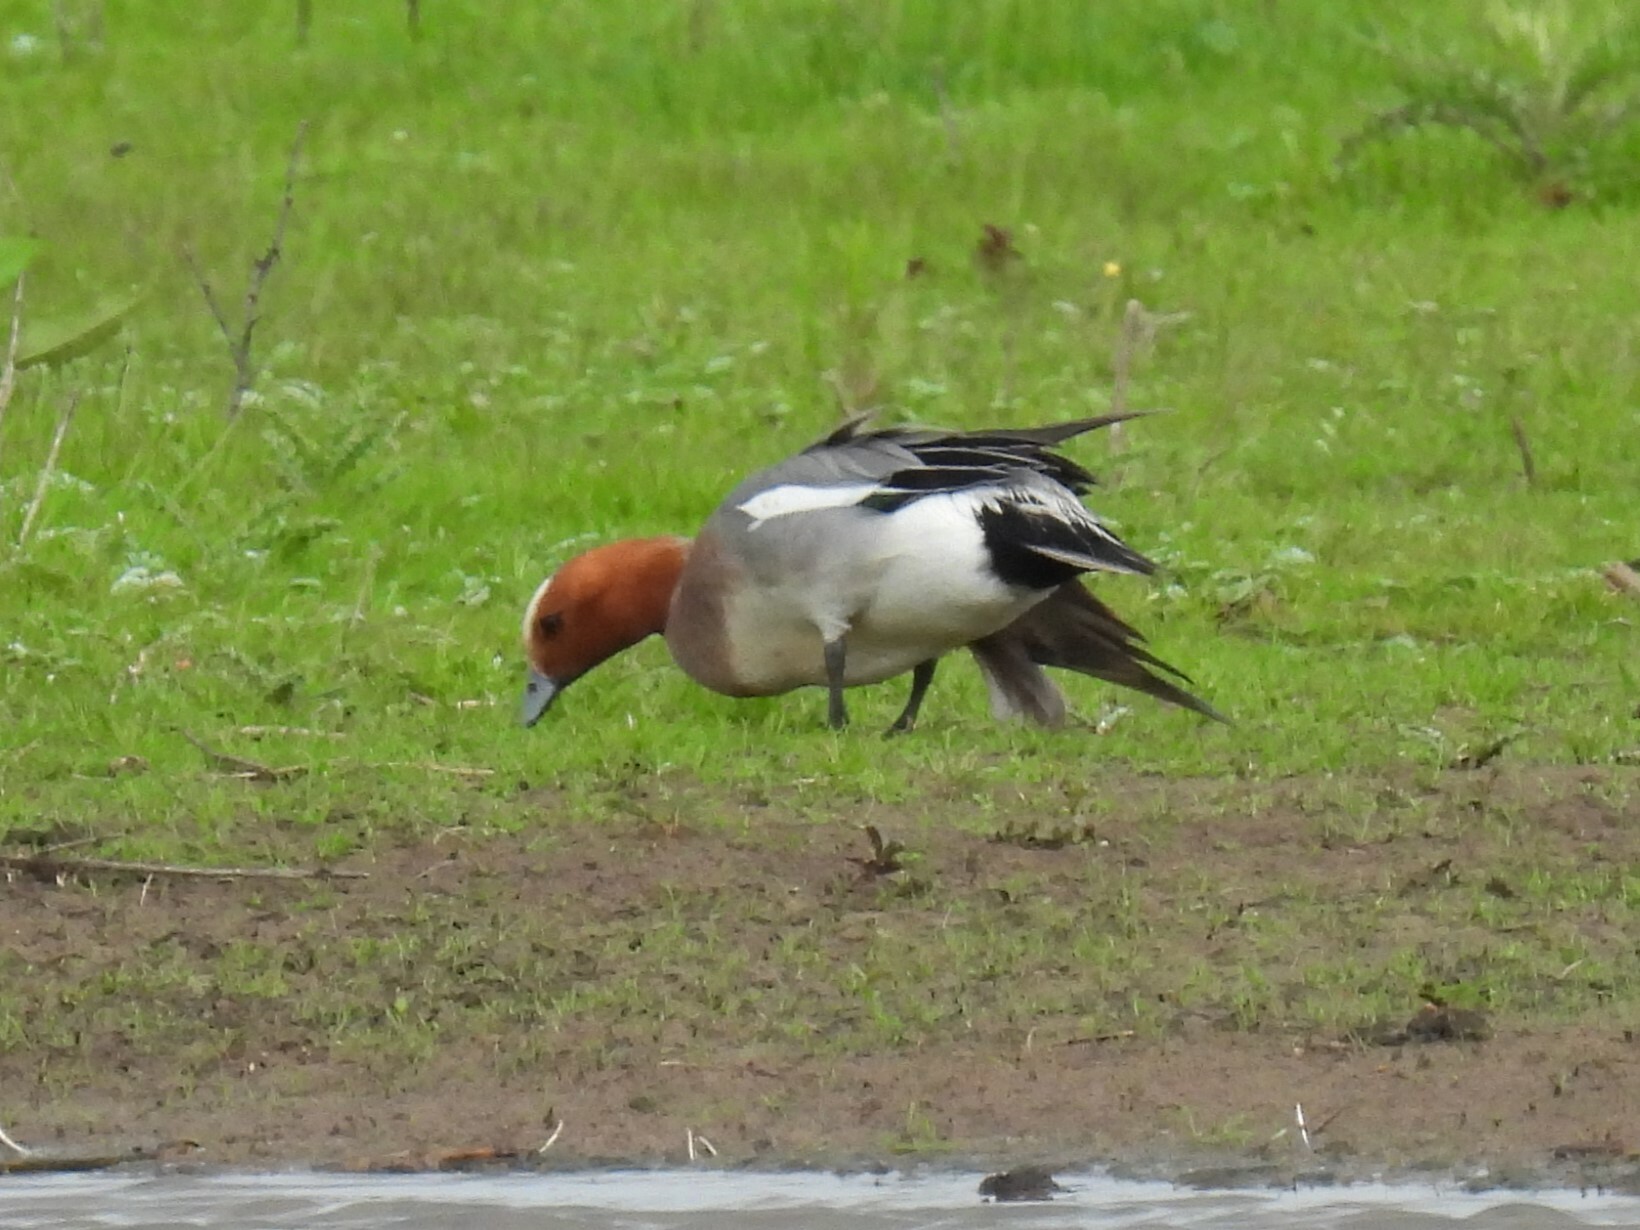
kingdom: Animalia
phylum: Chordata
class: Aves
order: Anseriformes
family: Anatidae
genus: Mareca
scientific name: Mareca penelope
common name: Eurasian wigeon
